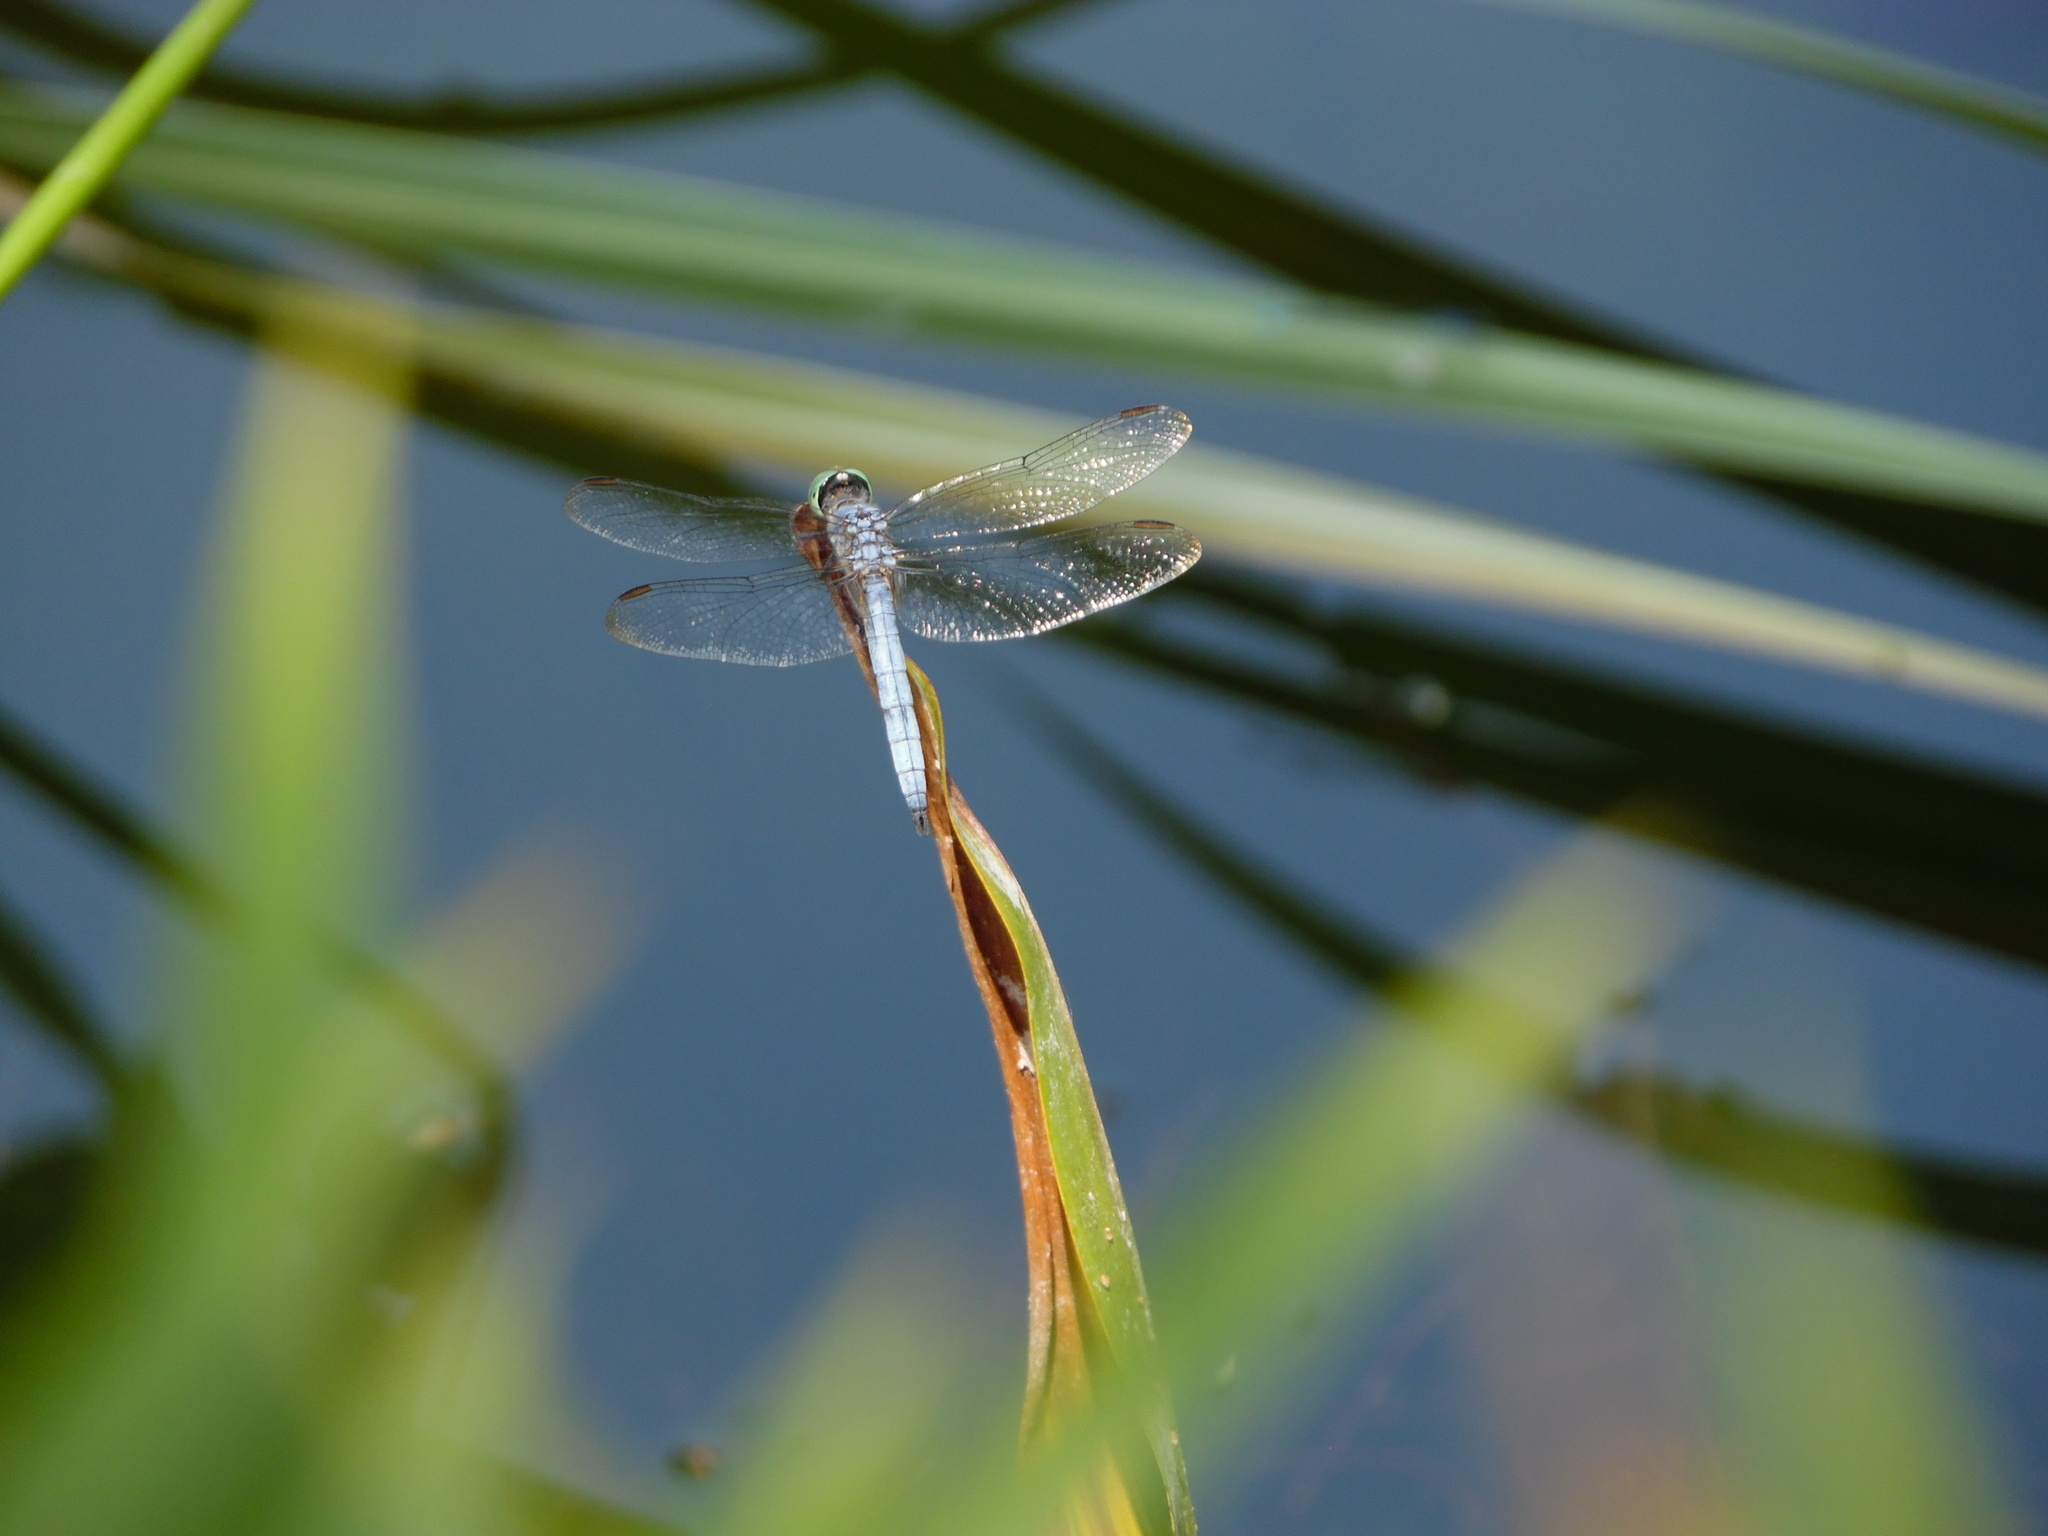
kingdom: Animalia
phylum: Arthropoda
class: Insecta
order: Odonata
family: Libellulidae
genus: Pachydiplax
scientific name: Pachydiplax longipennis
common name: Blue dasher
